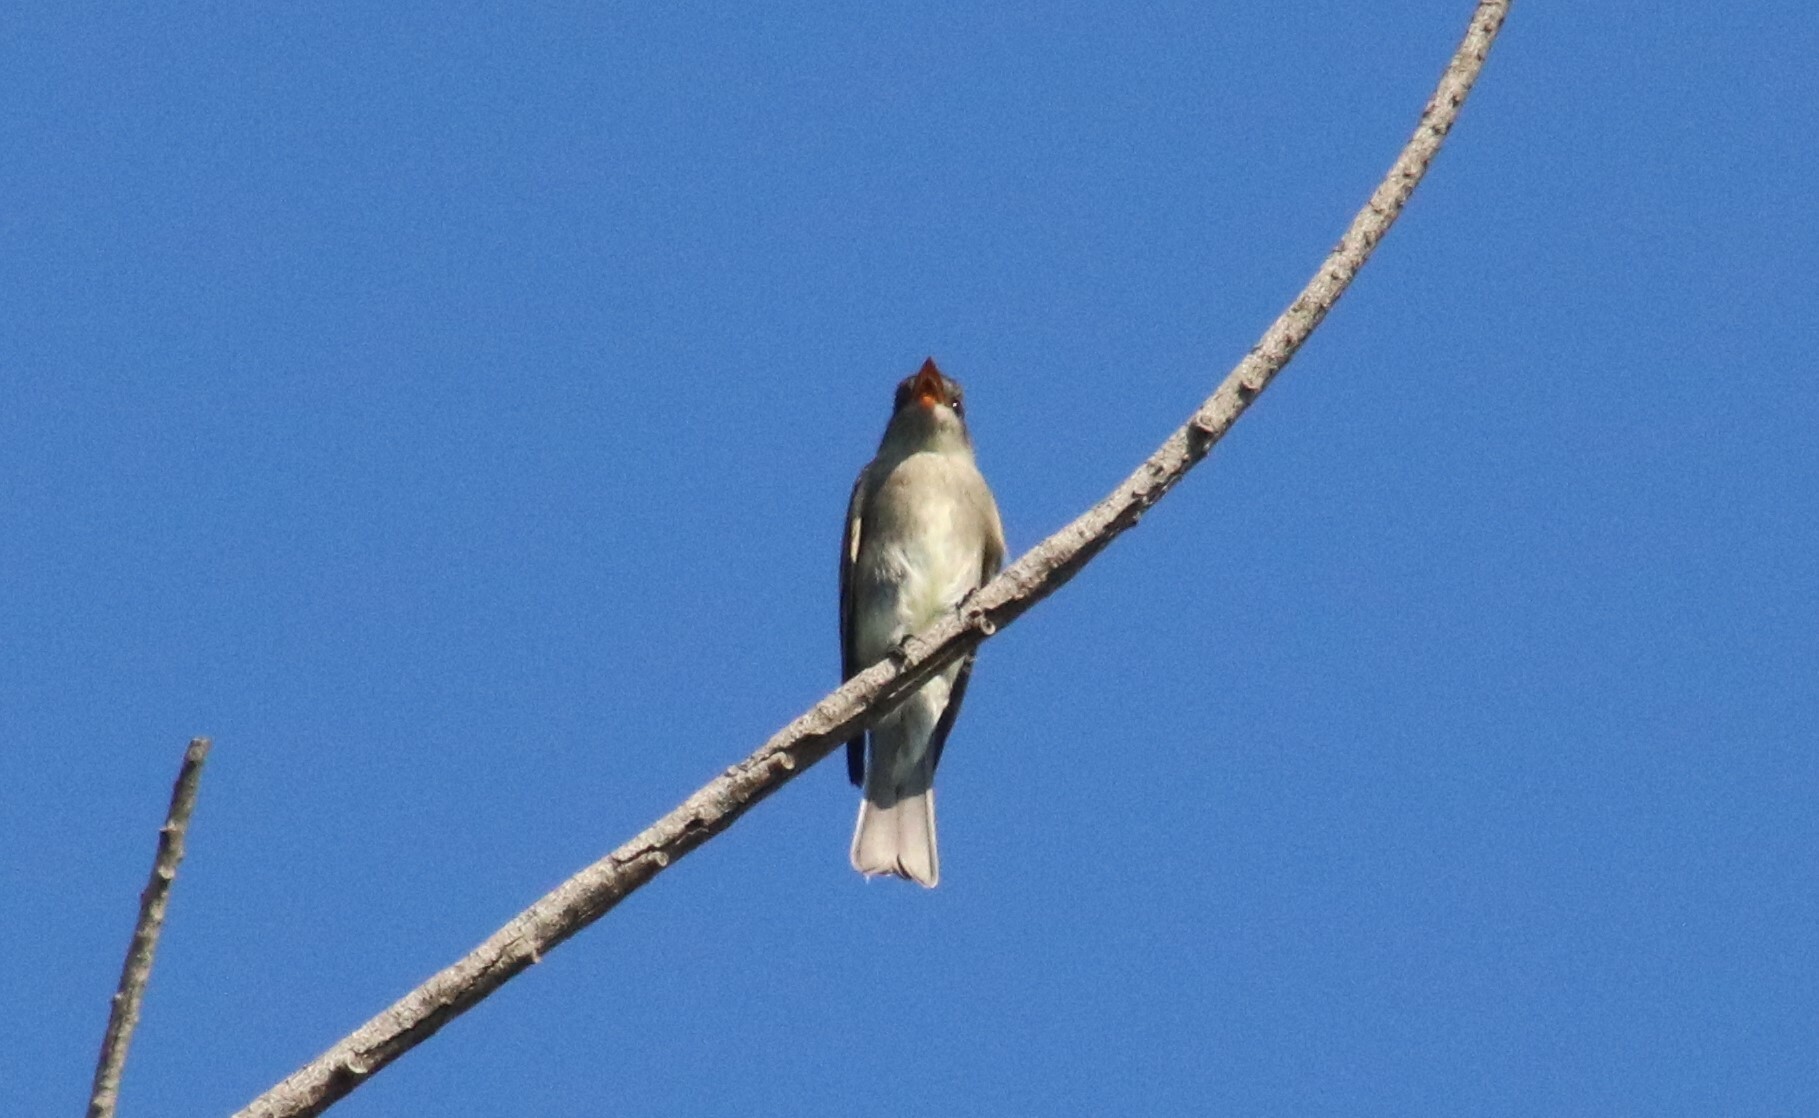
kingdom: Animalia
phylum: Chordata
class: Aves
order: Passeriformes
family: Tyrannidae
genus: Contopus
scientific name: Contopus sordidulus
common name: Western wood-pewee
